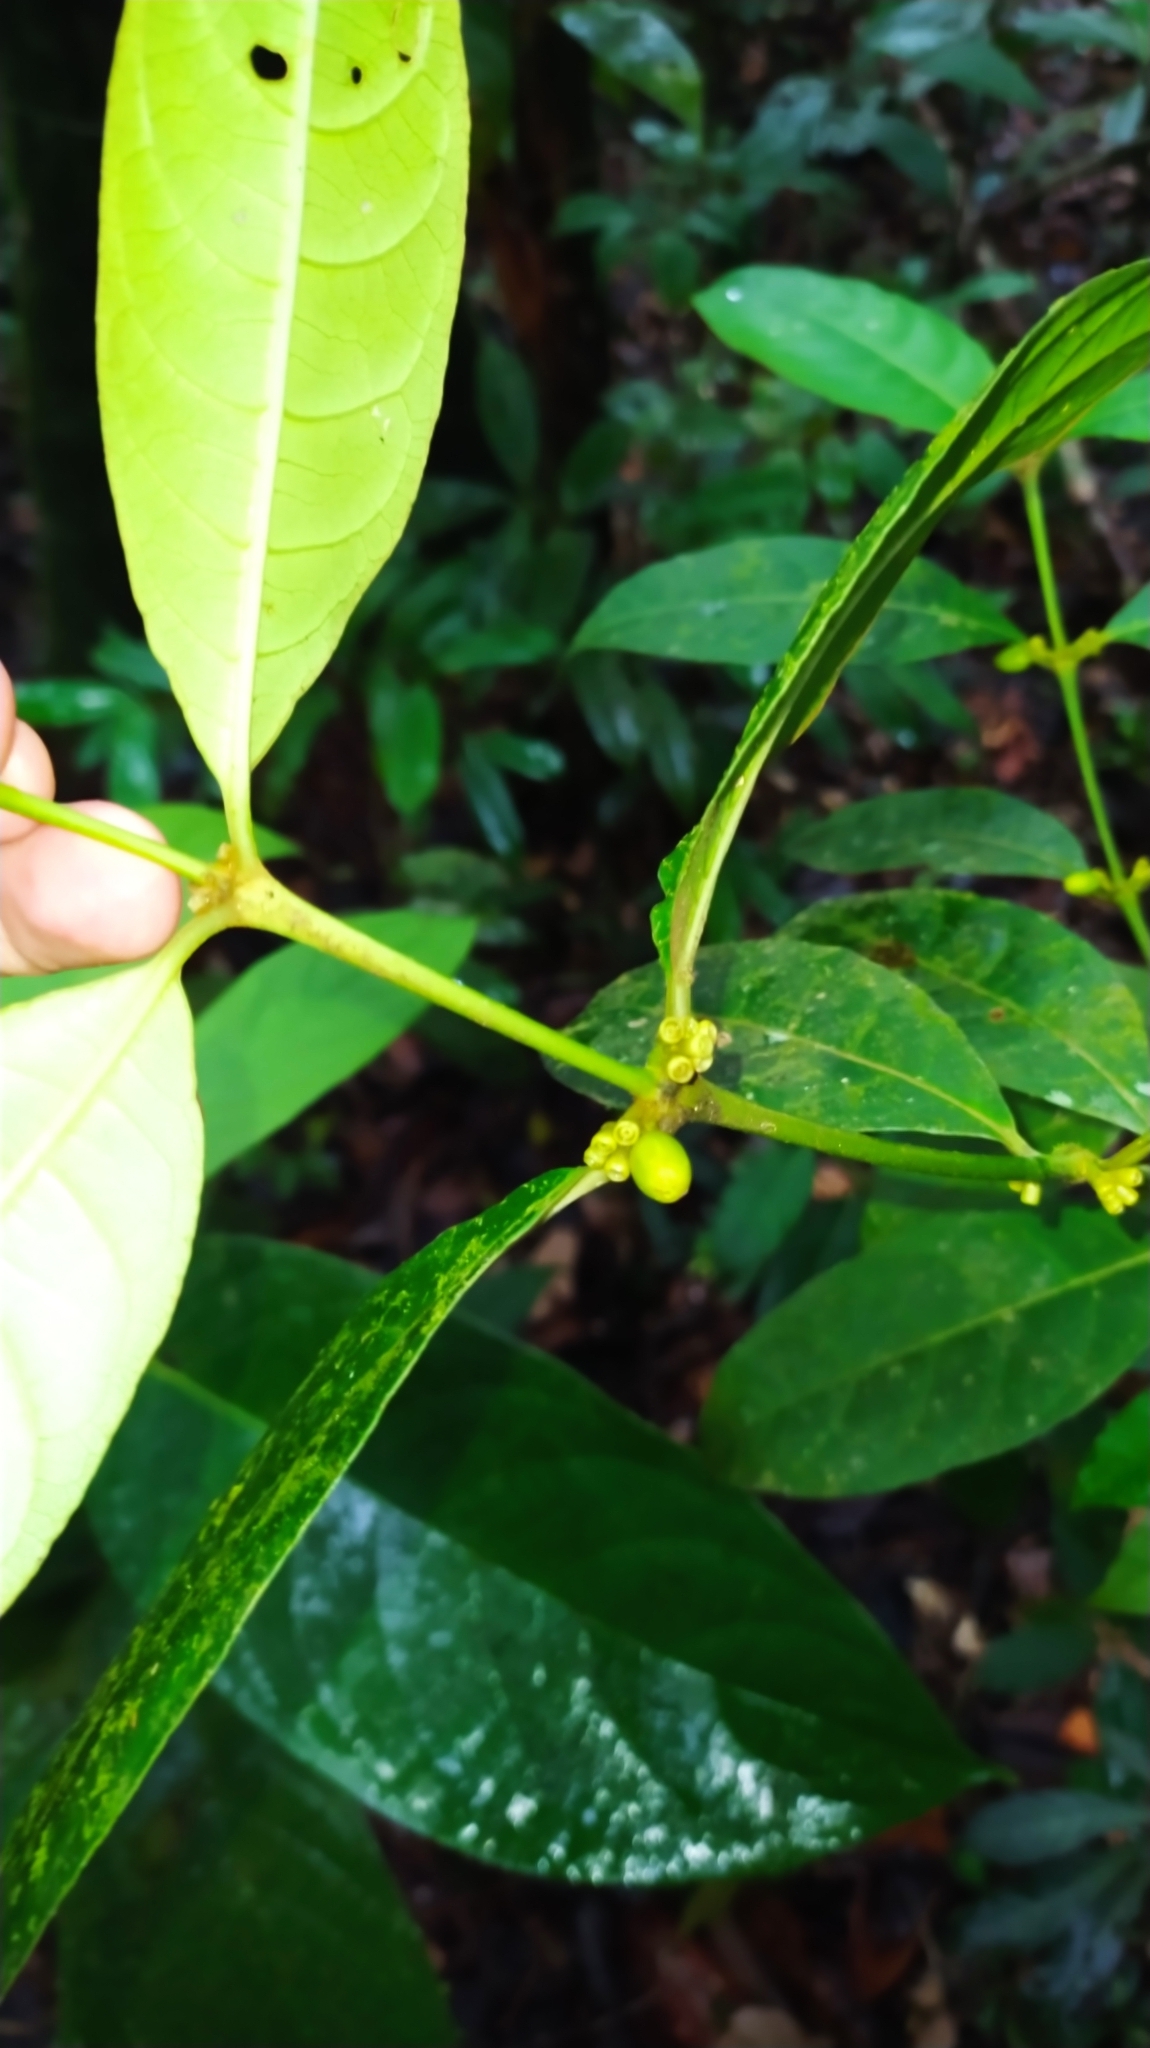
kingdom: Plantae
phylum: Tracheophyta
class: Magnoliopsida
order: Gentianales
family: Rubiaceae
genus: Ronabea
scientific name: Ronabea latifolia
